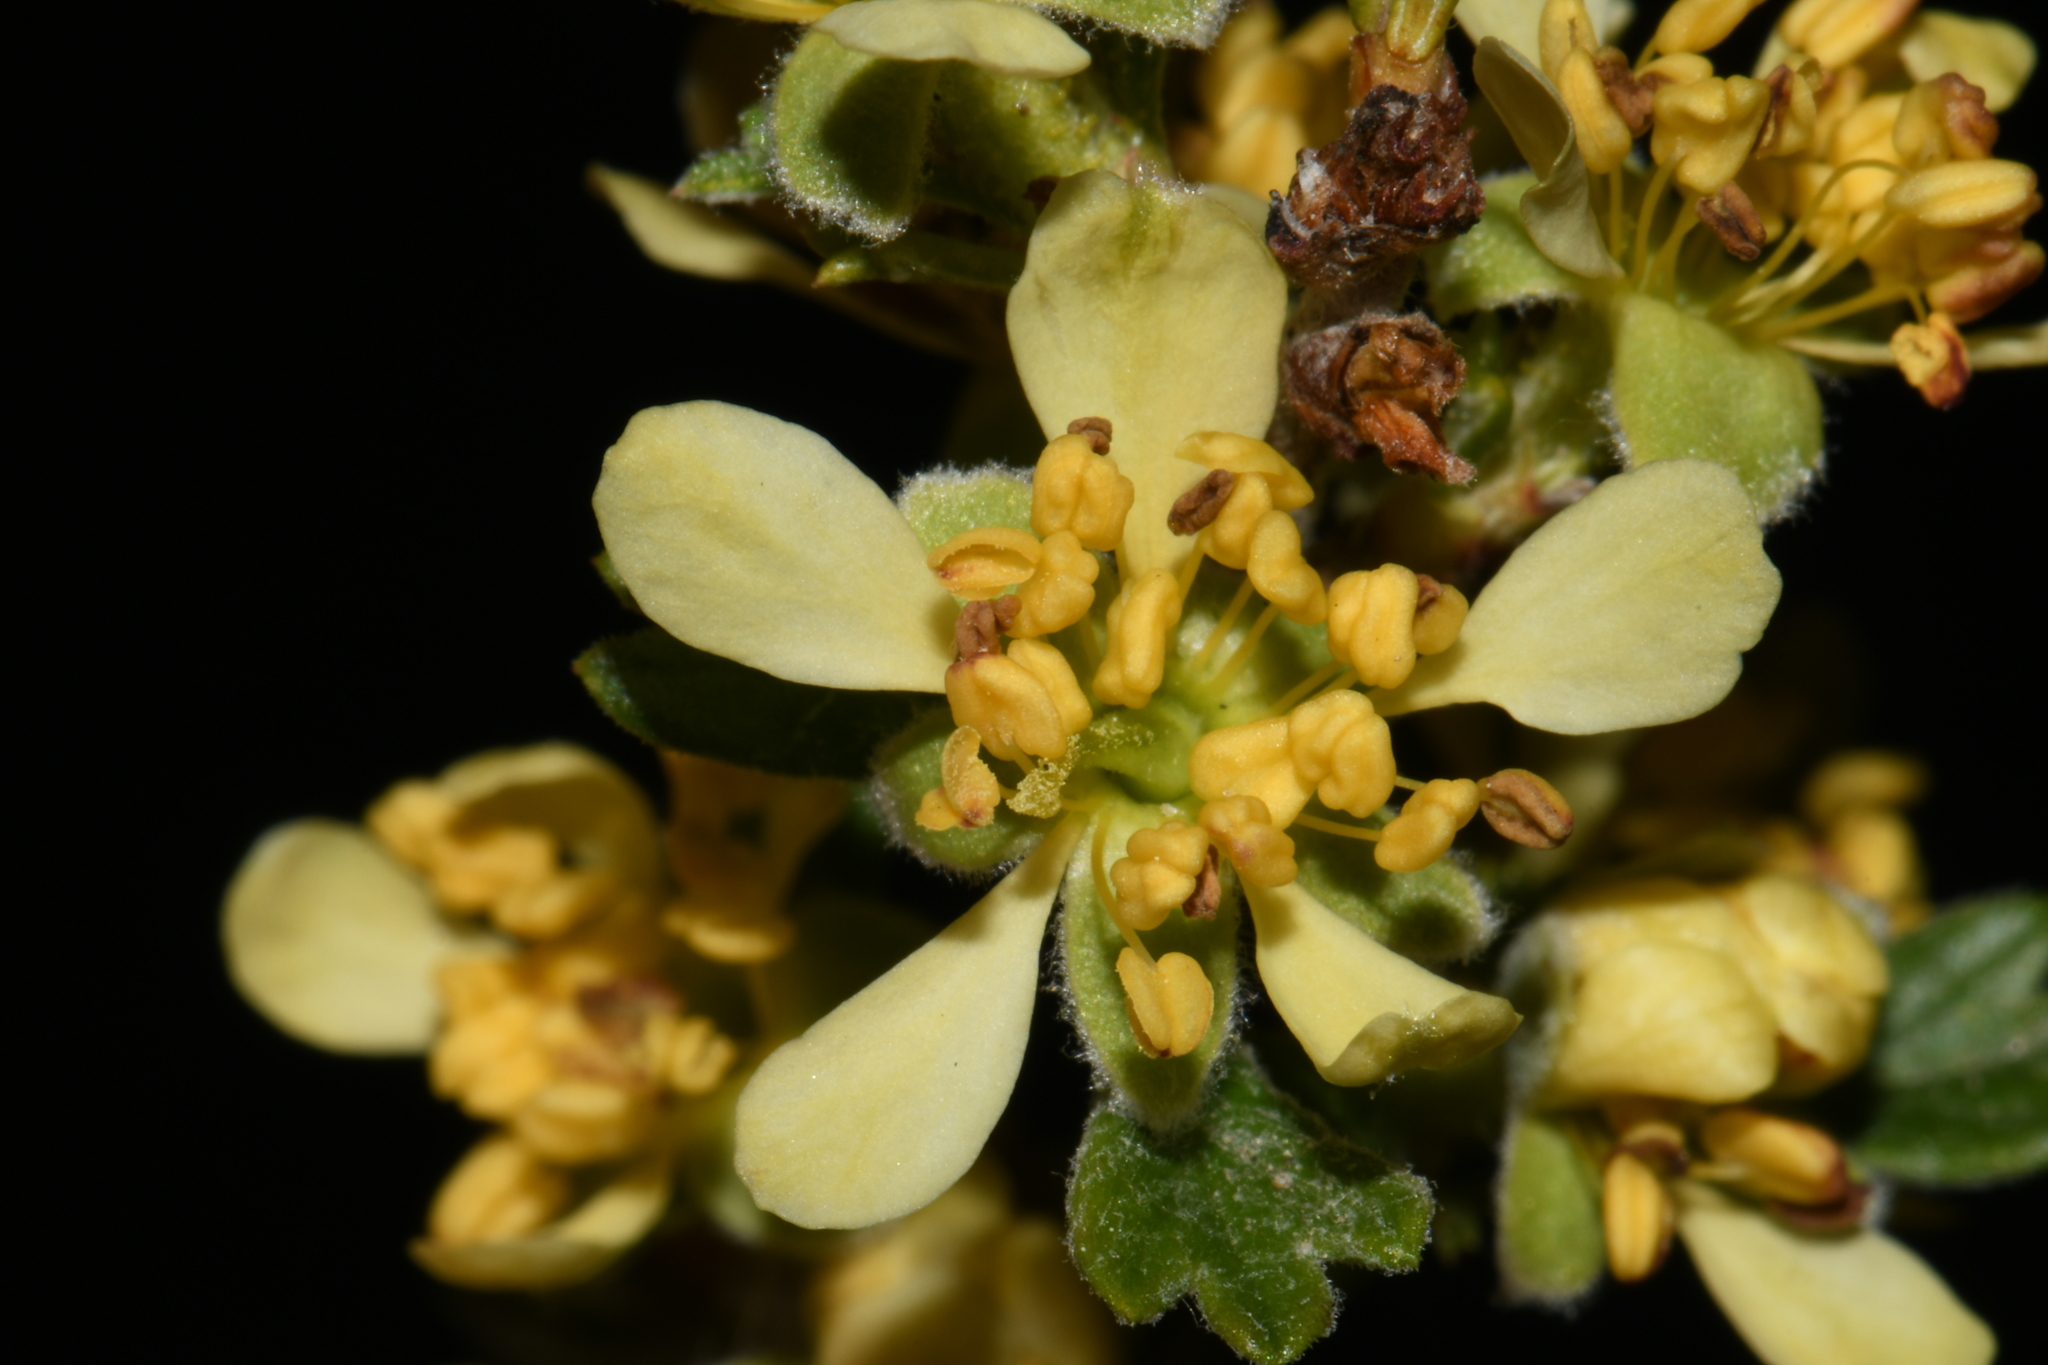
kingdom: Plantae
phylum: Tracheophyta
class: Magnoliopsida
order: Rosales
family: Rosaceae
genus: Purshia
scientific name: Purshia tridentata
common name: Antelope bitterbrush
